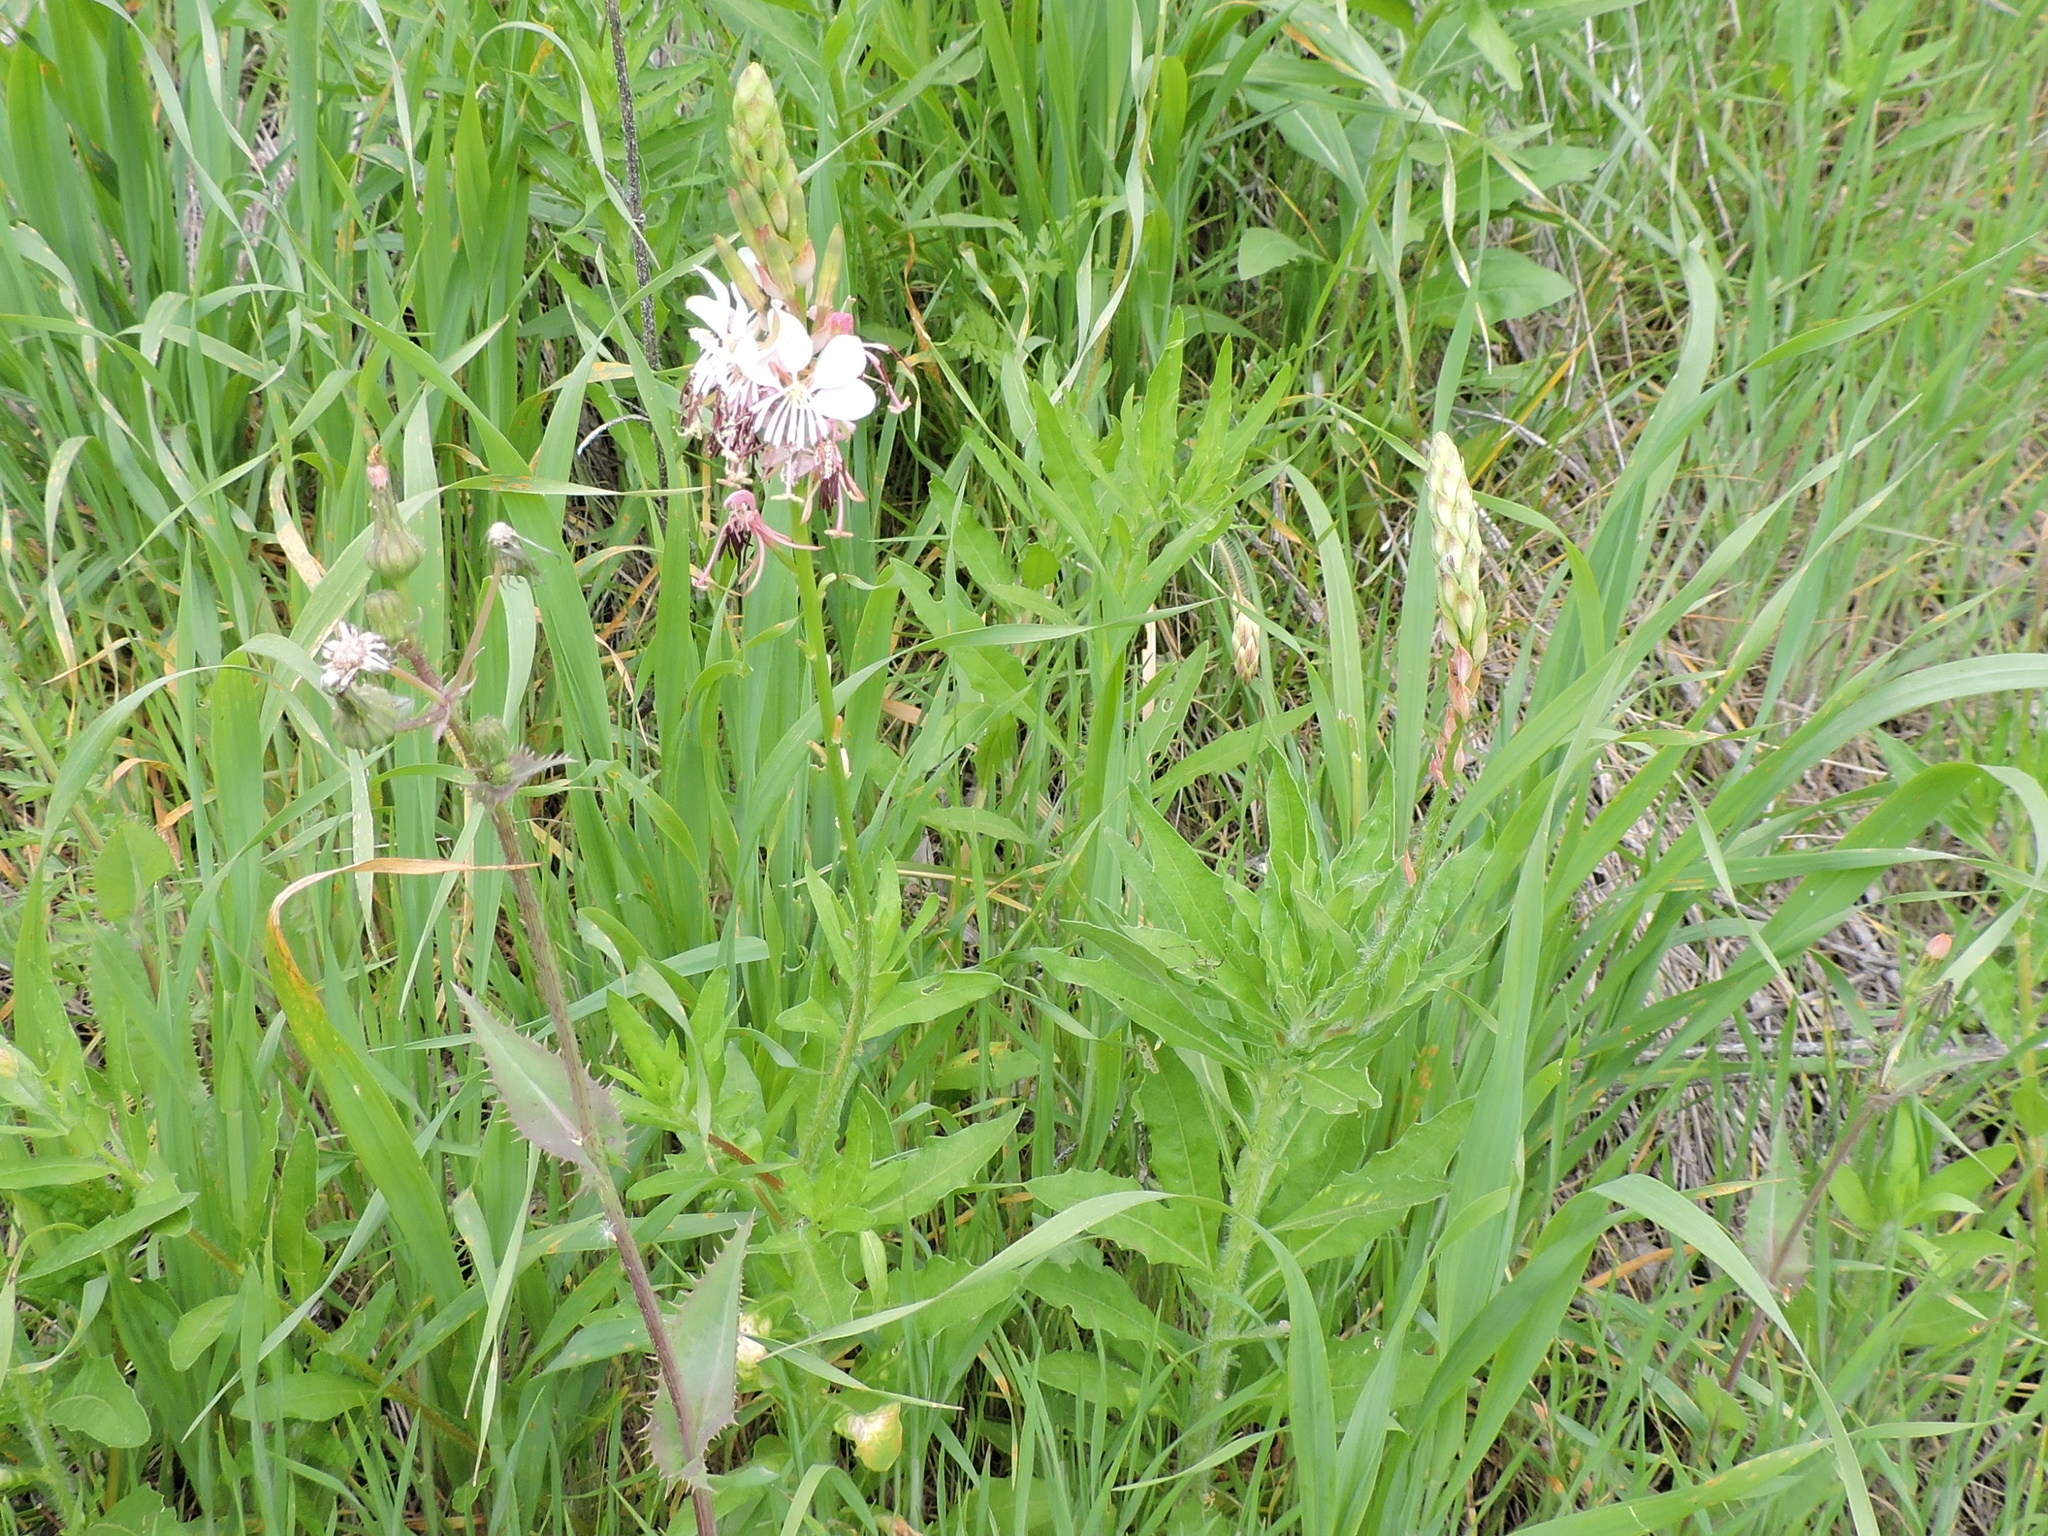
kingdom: Plantae
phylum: Tracheophyta
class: Magnoliopsida
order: Myrtales
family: Onagraceae
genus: Oenothera
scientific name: Oenothera suffulta
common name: Kisses
